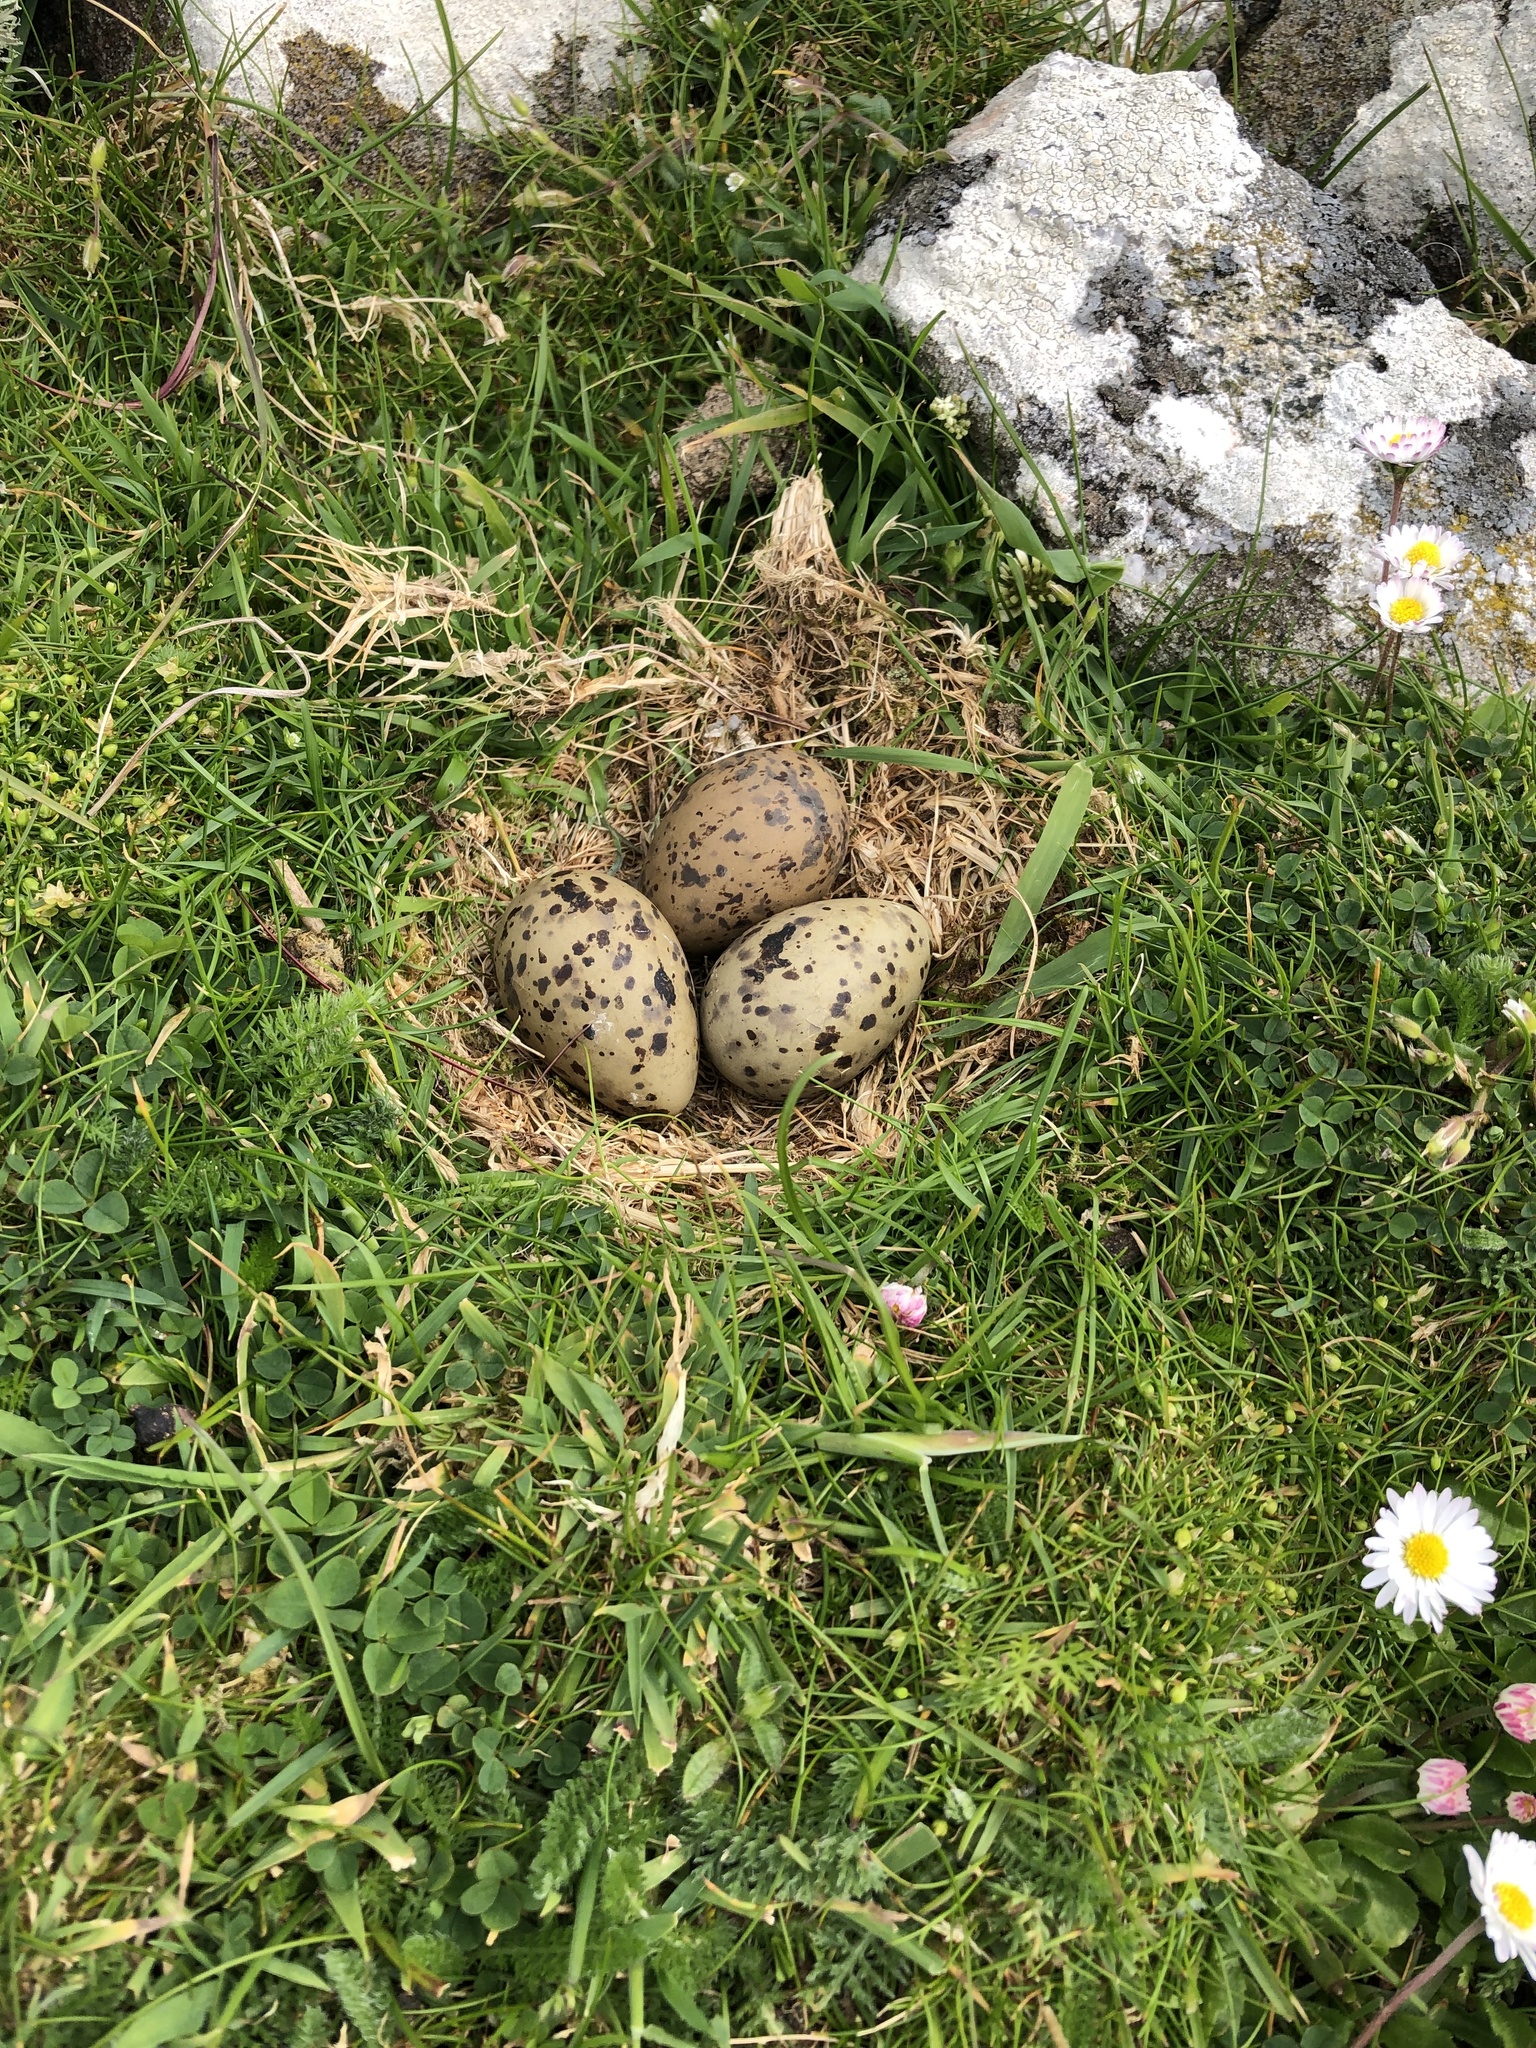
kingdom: Animalia
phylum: Chordata
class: Aves
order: Charadriiformes
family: Laridae
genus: Sterna
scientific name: Sterna paradisaea
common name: Arctic tern
